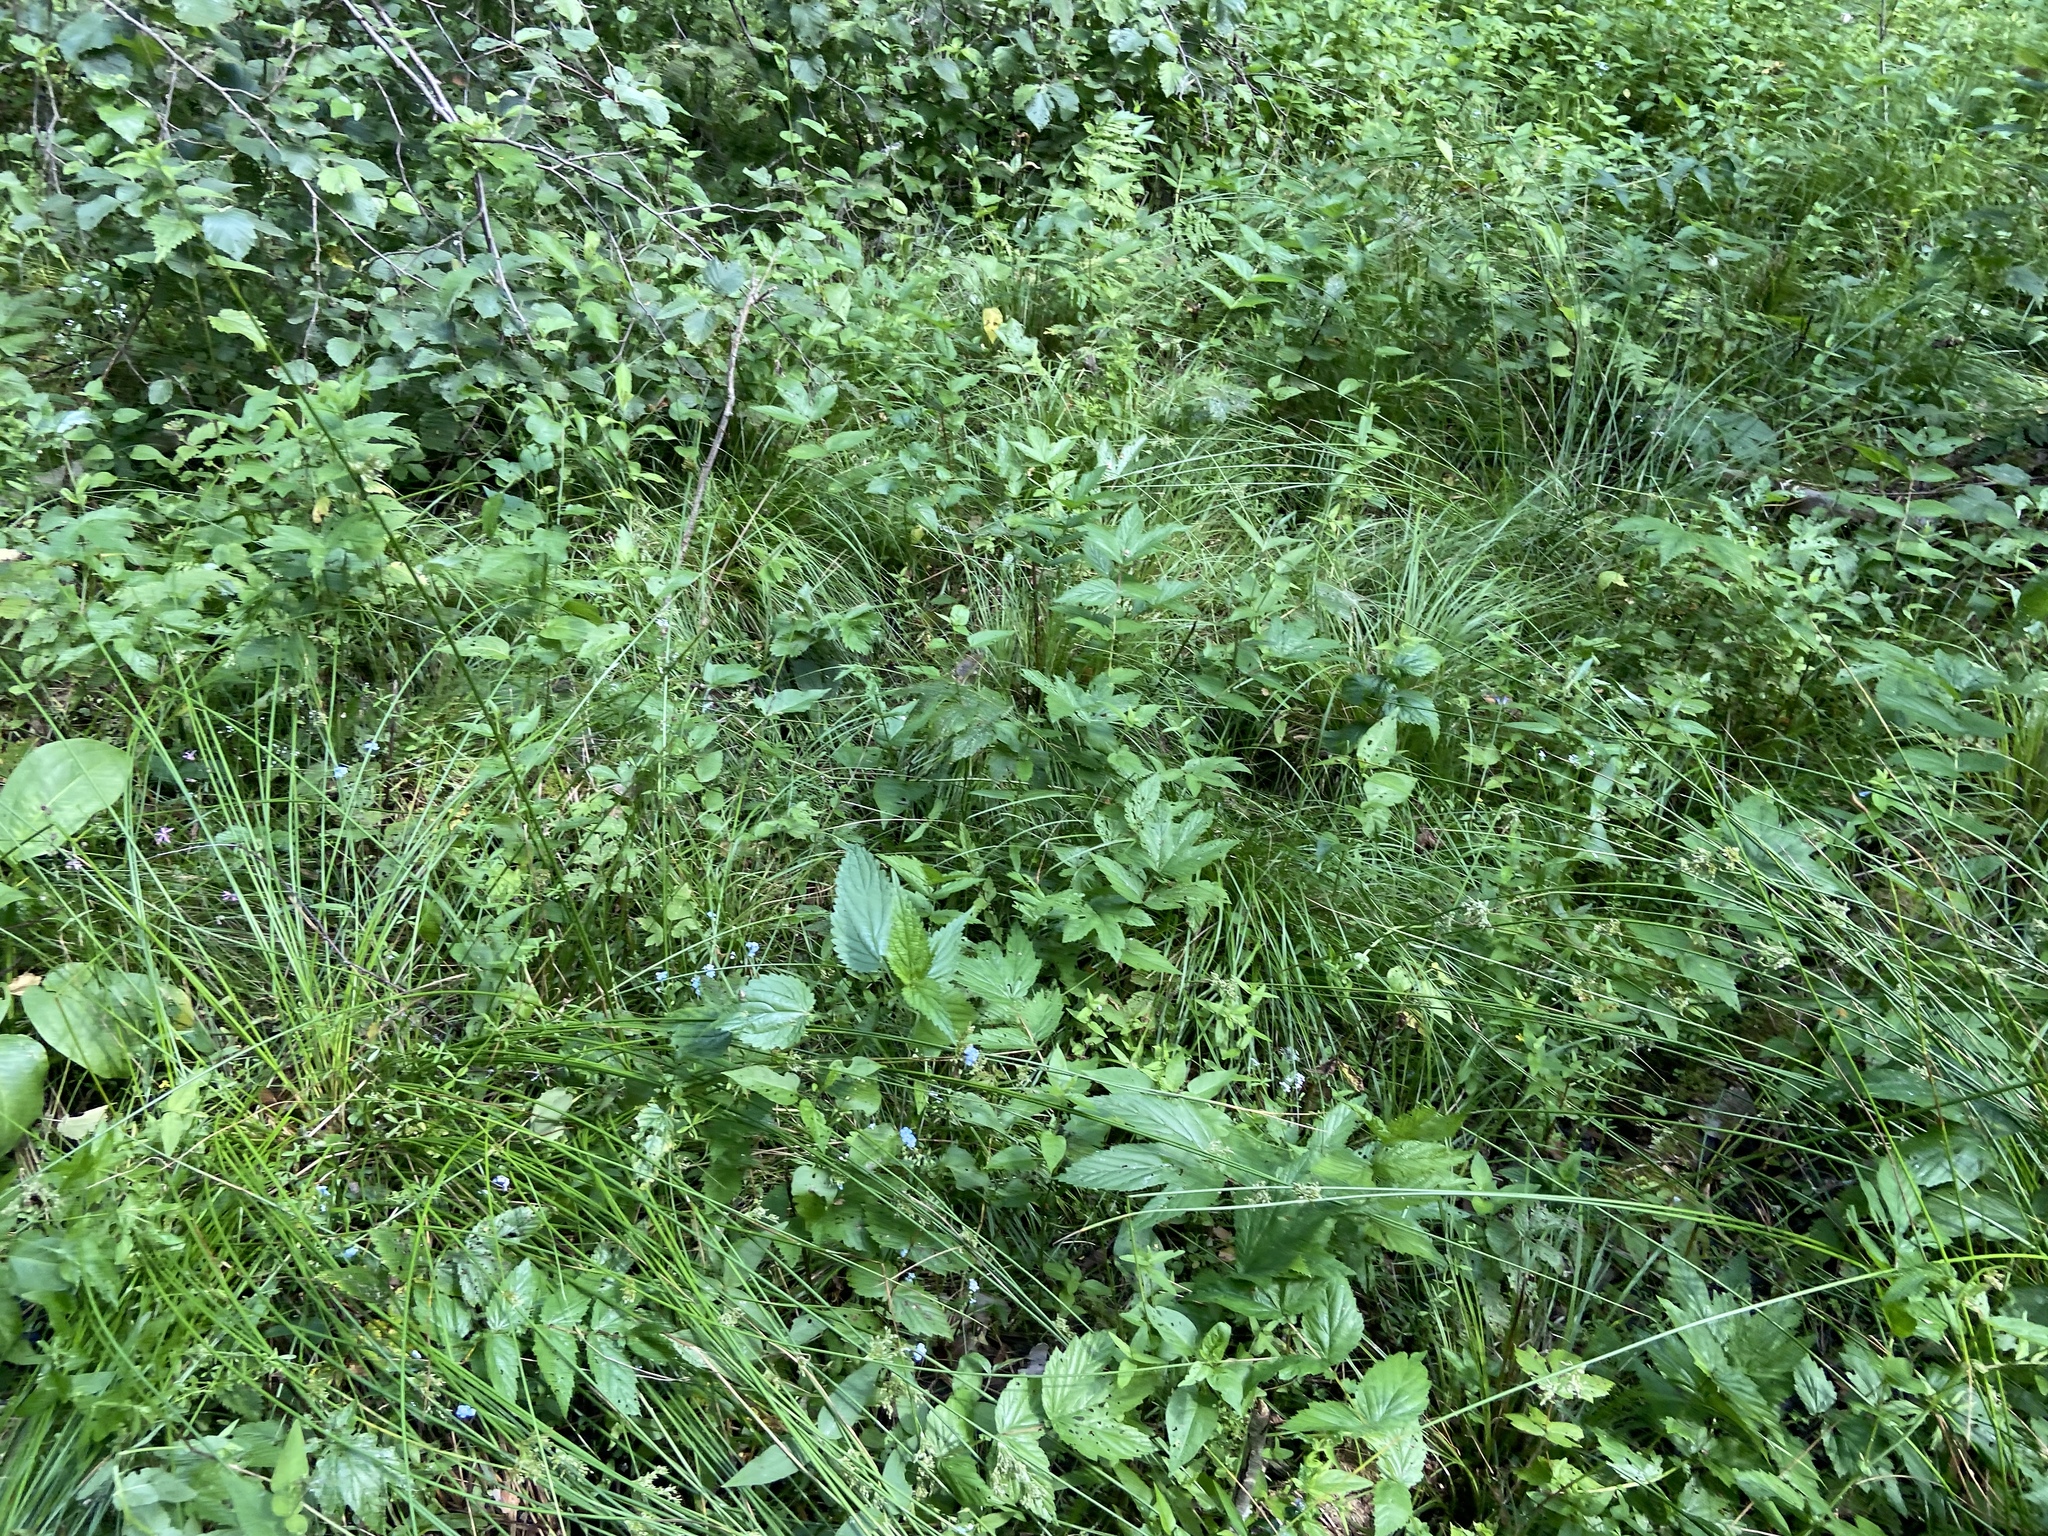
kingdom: Plantae
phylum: Tracheophyta
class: Liliopsida
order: Poales
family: Juncaceae
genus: Juncus
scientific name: Juncus effusus
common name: Soft rush
